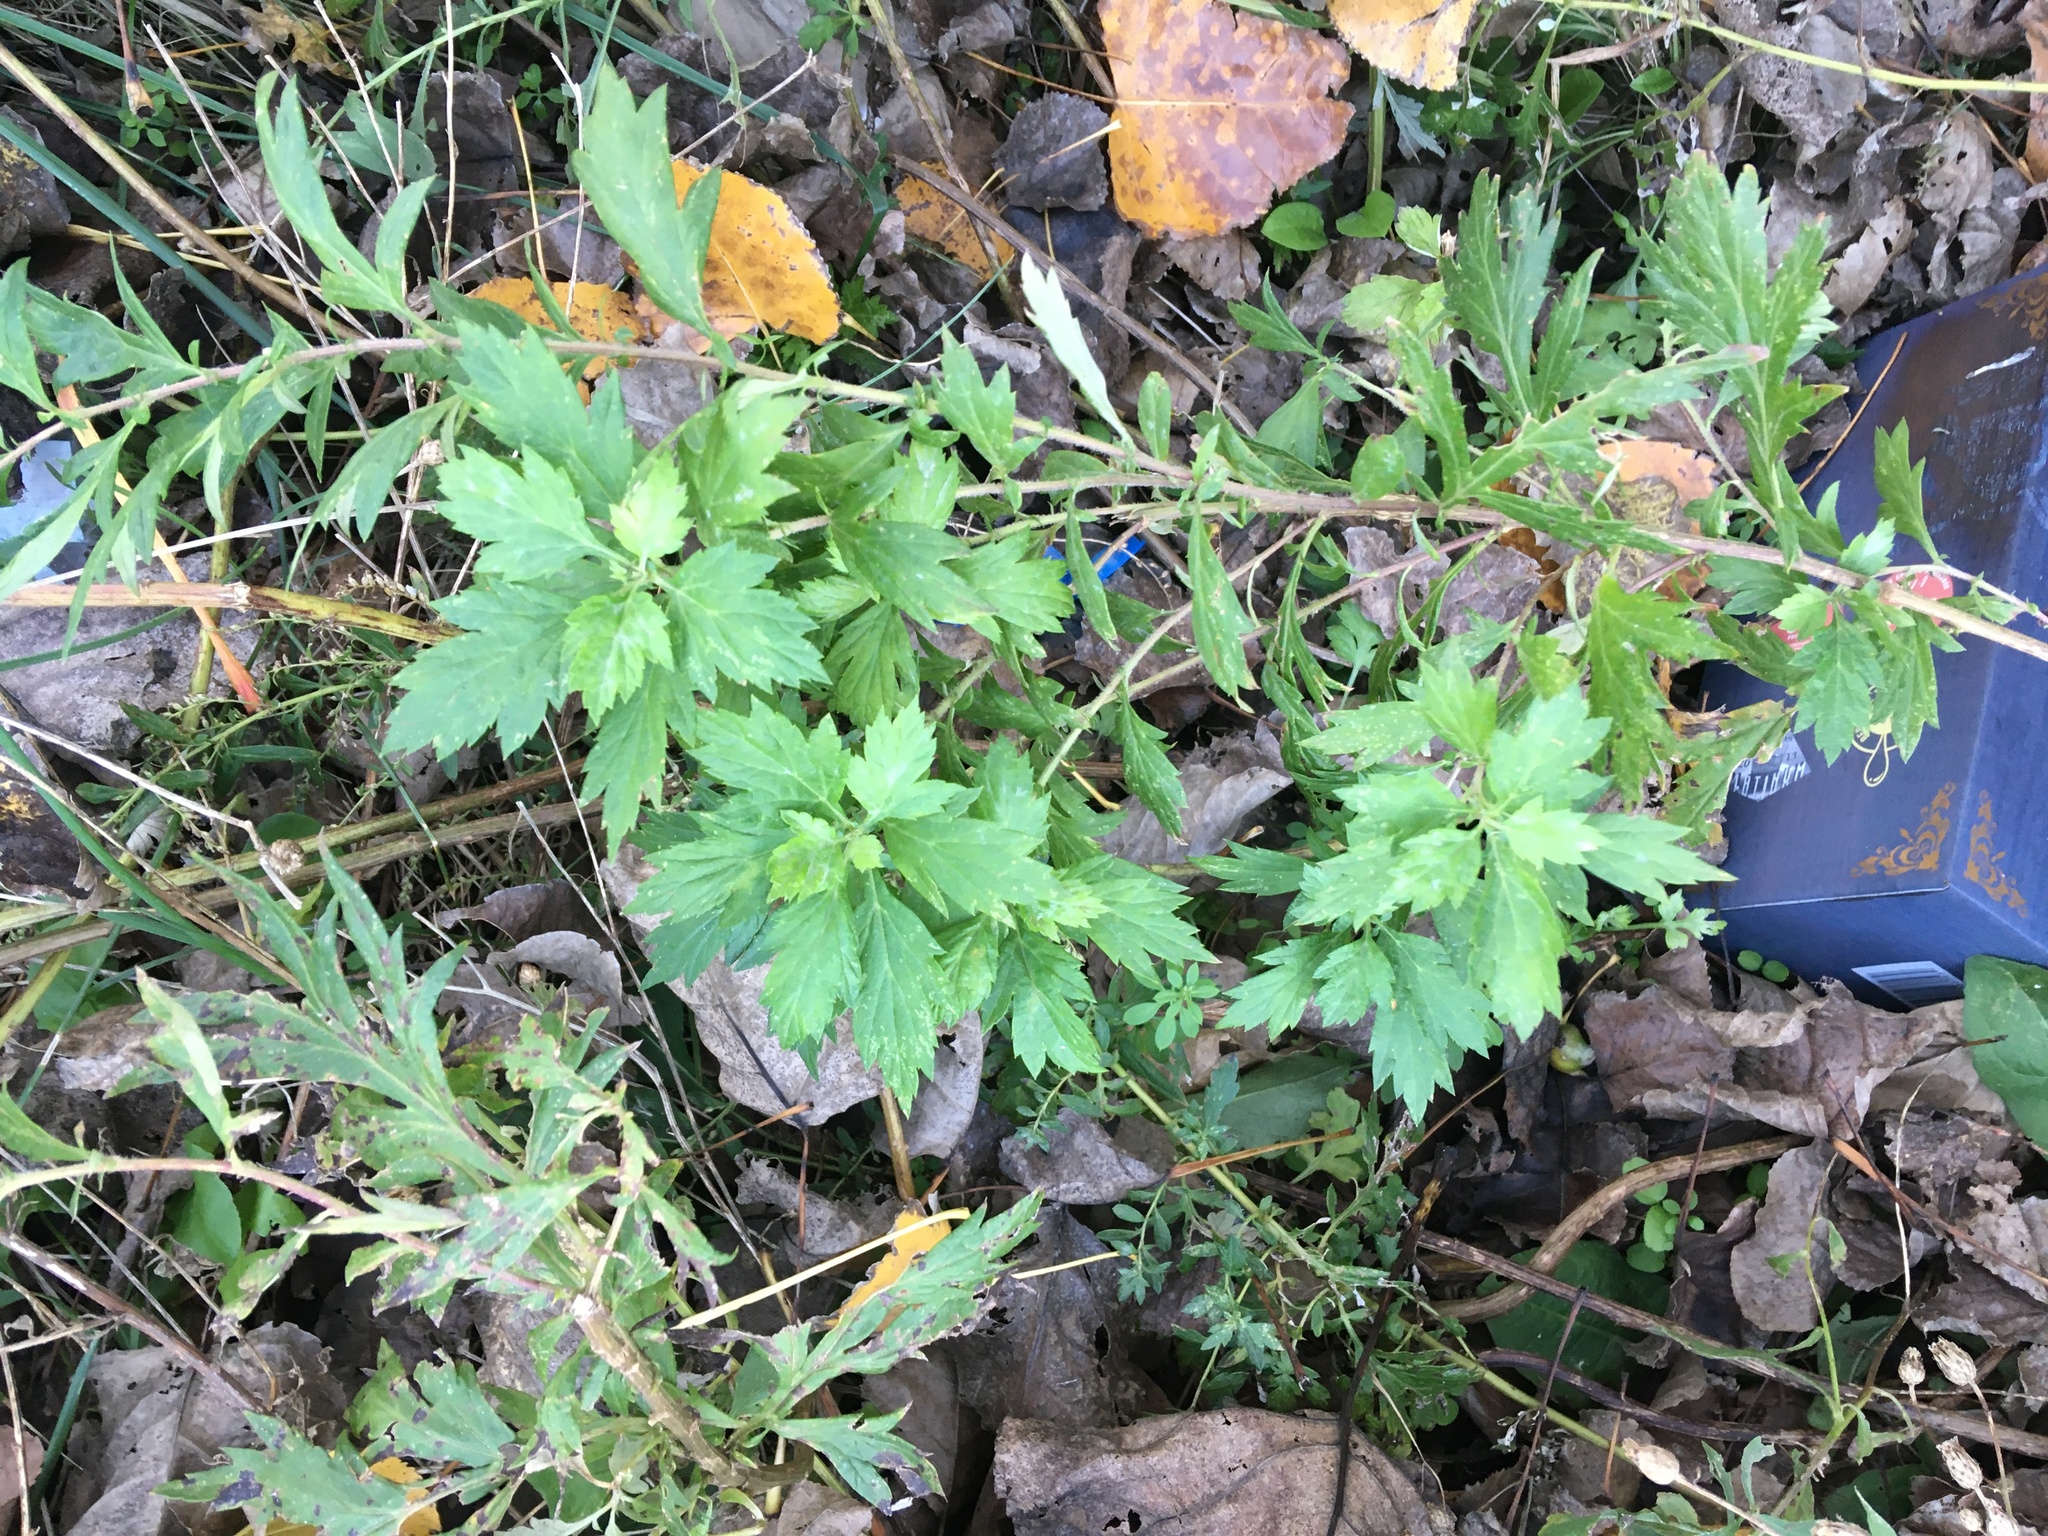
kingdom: Plantae
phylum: Tracheophyta
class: Magnoliopsida
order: Asterales
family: Asteraceae
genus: Artemisia
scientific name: Artemisia vulgaris
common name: Mugwort
